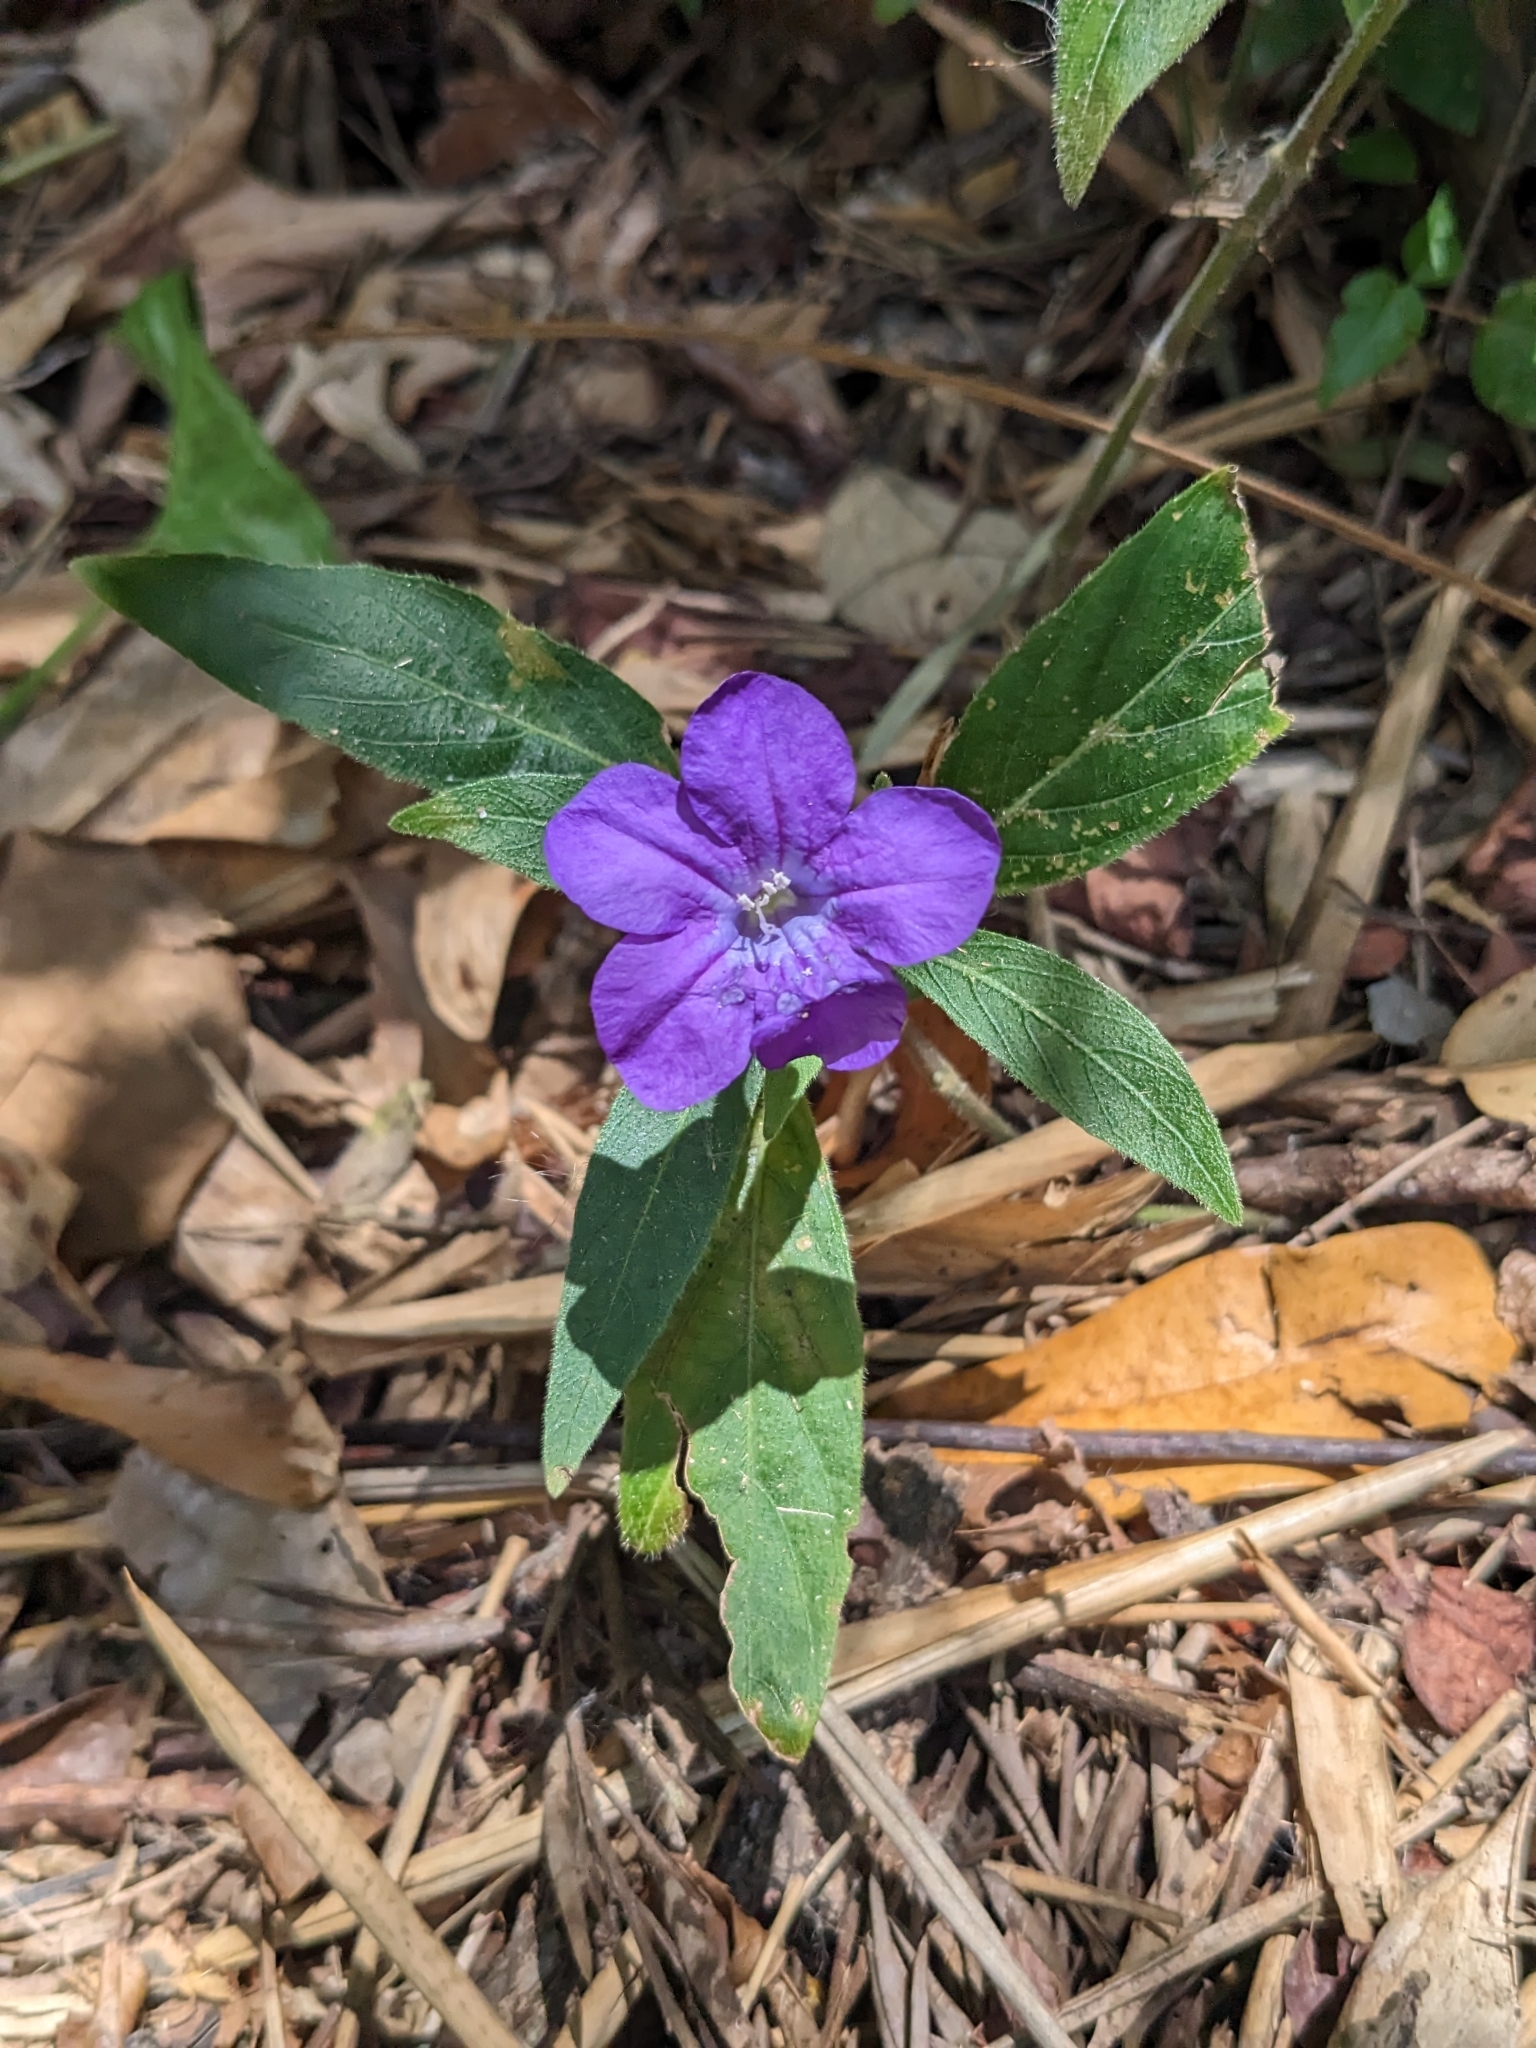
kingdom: Plantae
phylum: Tracheophyta
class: Magnoliopsida
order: Lamiales
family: Acanthaceae
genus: Ruellia
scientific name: Ruellia squarrosa
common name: Water bluebell
